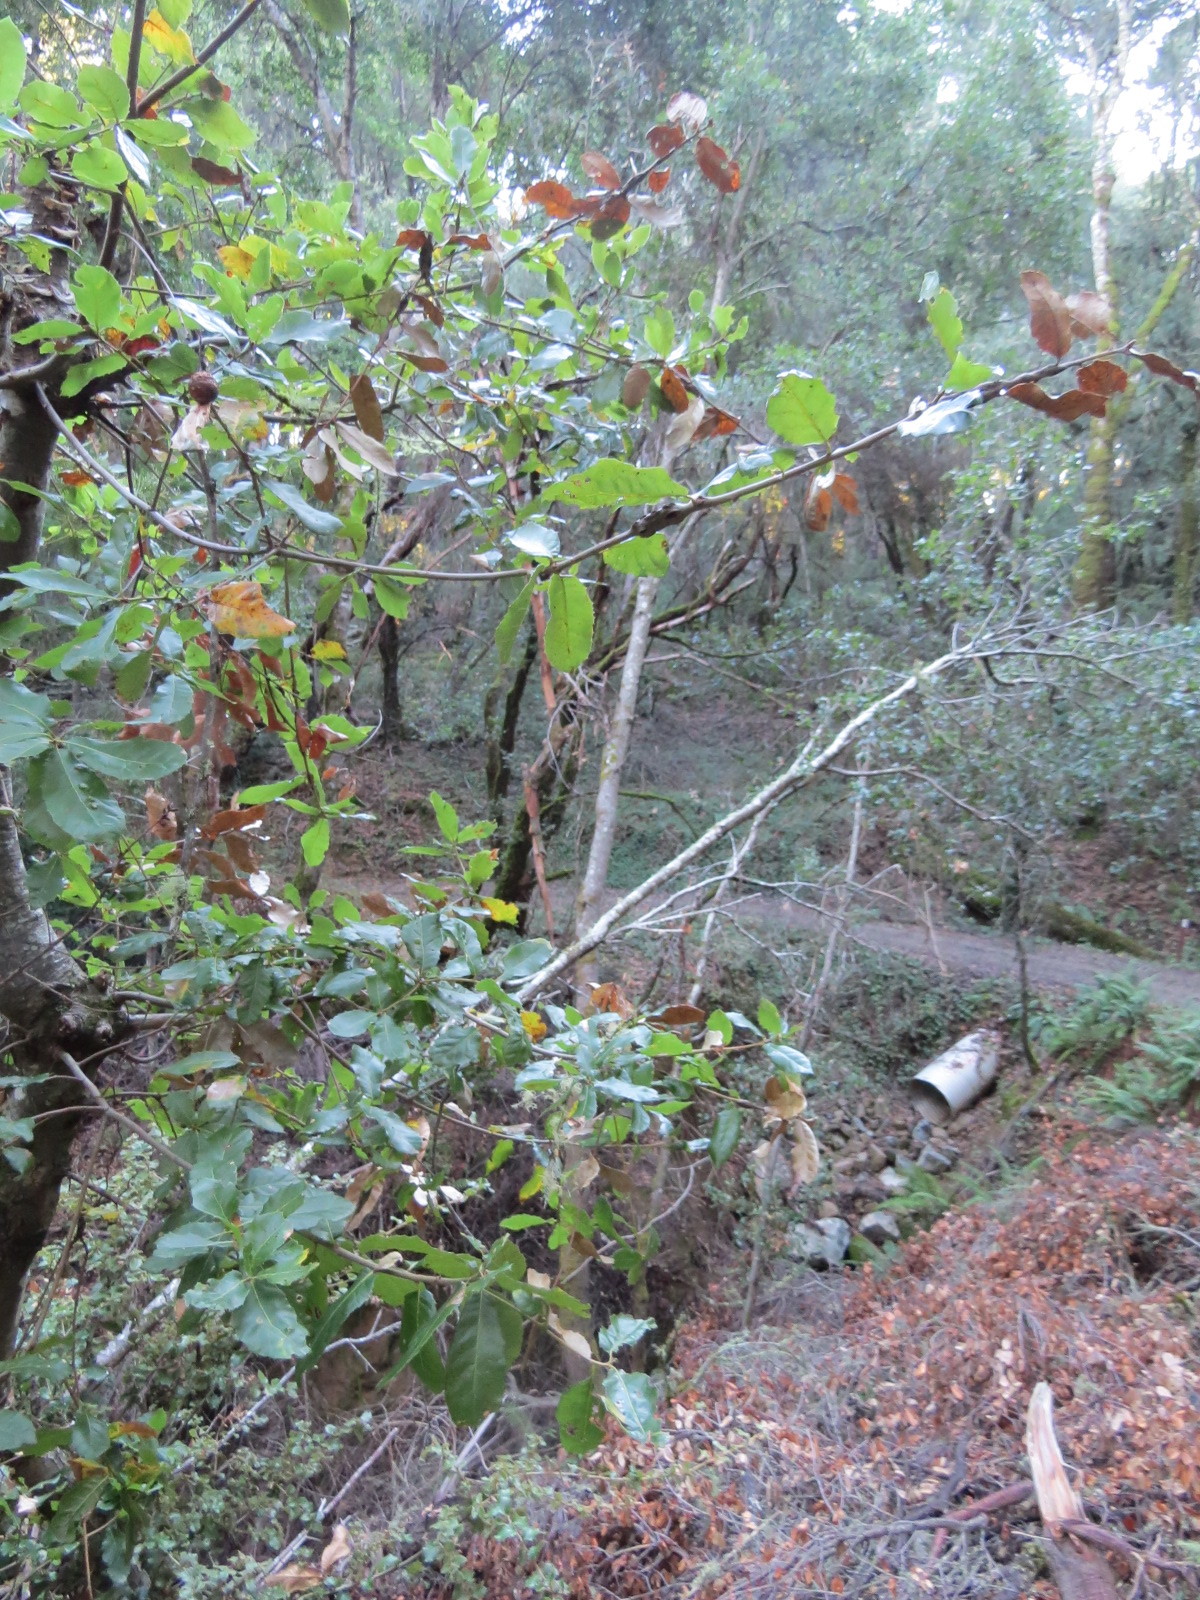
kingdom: Animalia
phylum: Arthropoda
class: Insecta
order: Hymenoptera
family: Cynipidae
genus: Amphibolips
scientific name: Amphibolips quercuspomiformis
